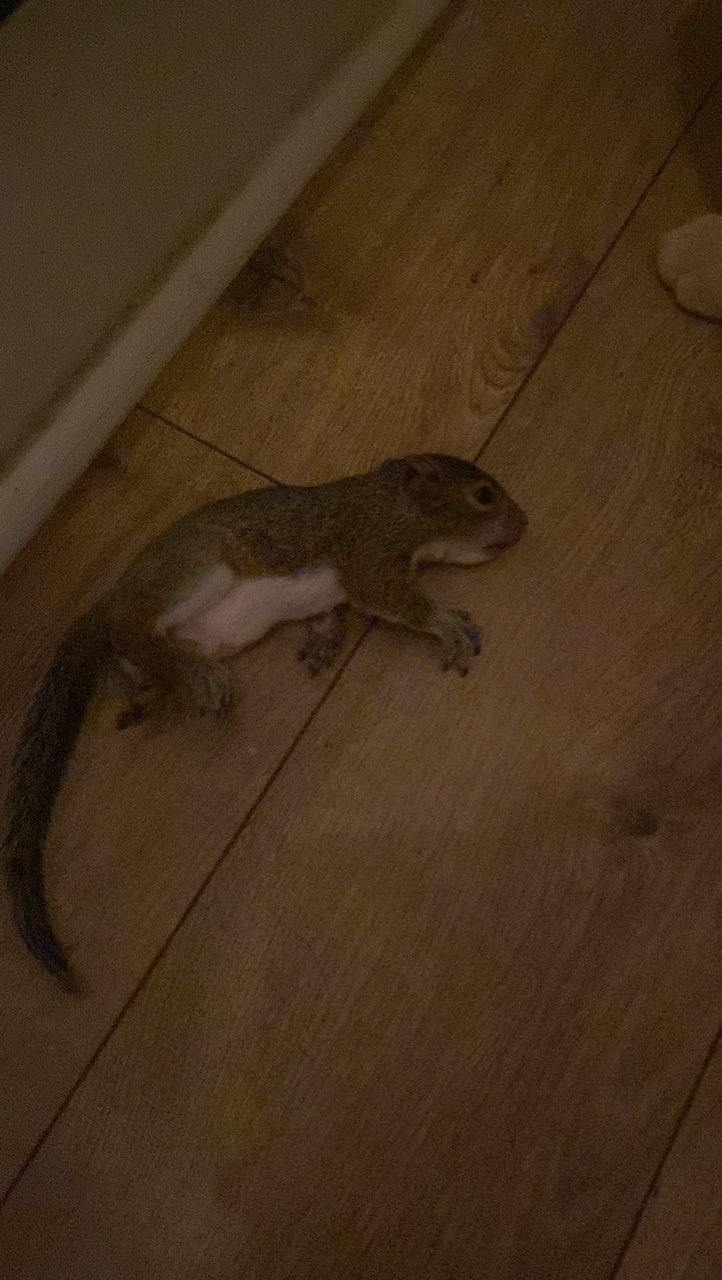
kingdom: Animalia
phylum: Chordata
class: Mammalia
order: Rodentia
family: Sciuridae
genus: Sciurus
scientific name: Sciurus carolinensis
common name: Eastern gray squirrel
